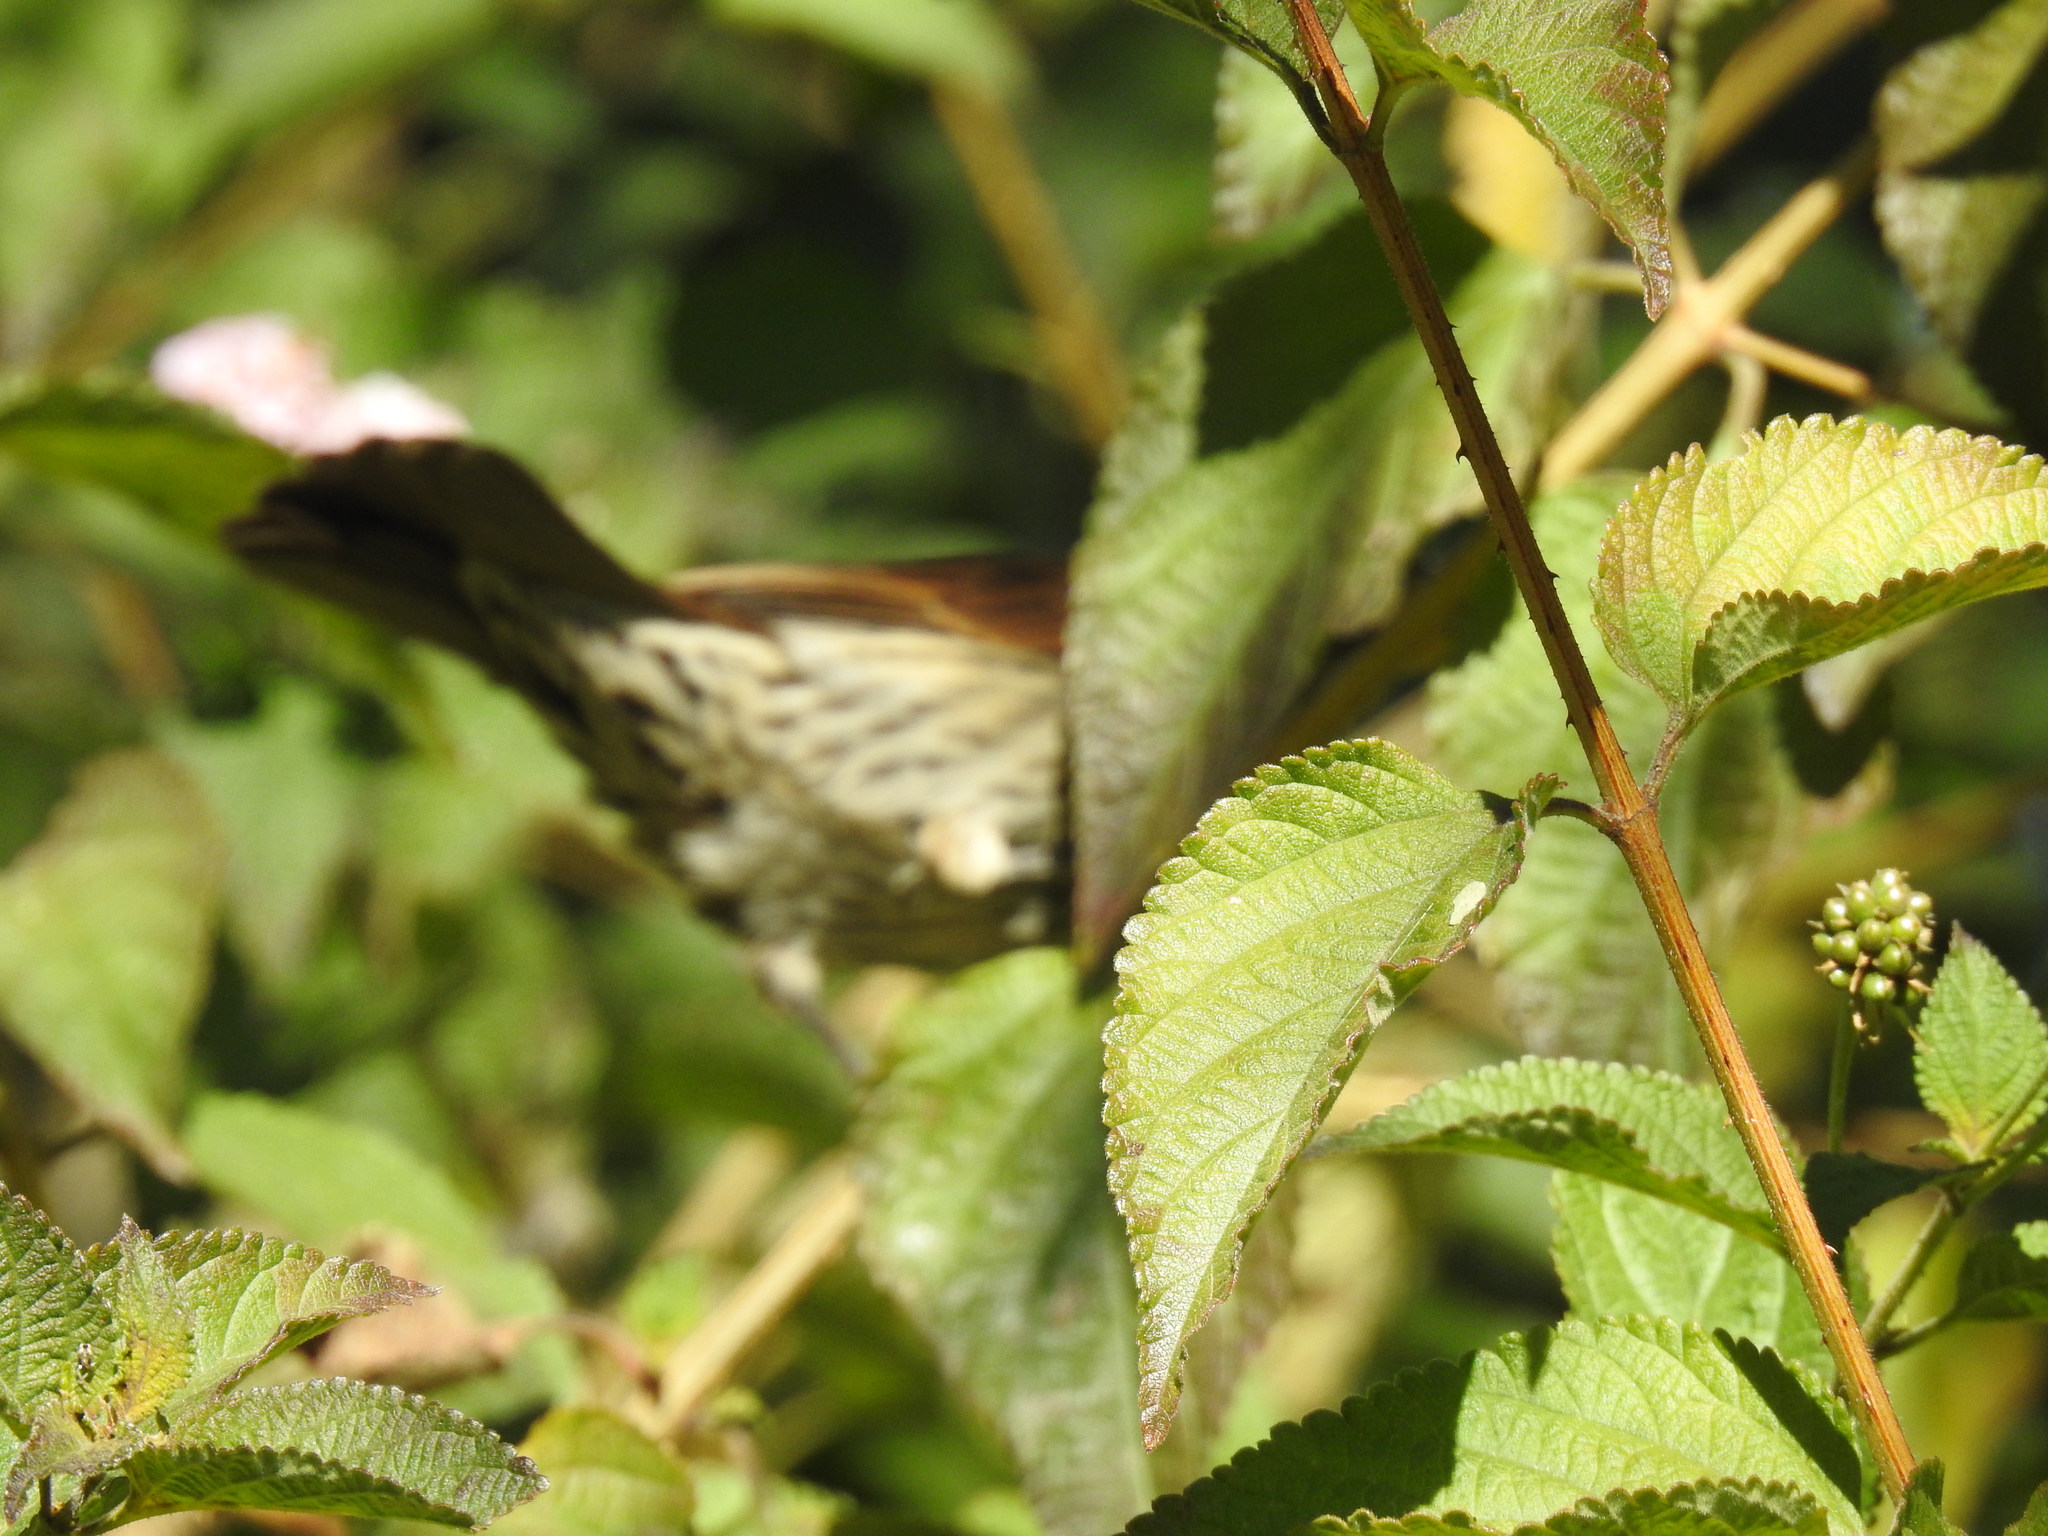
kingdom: Animalia
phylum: Chordata
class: Aves
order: Passeriformes
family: Ploceidae
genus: Amblyospiza
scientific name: Amblyospiza albifrons
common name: Thick-billed weaver
